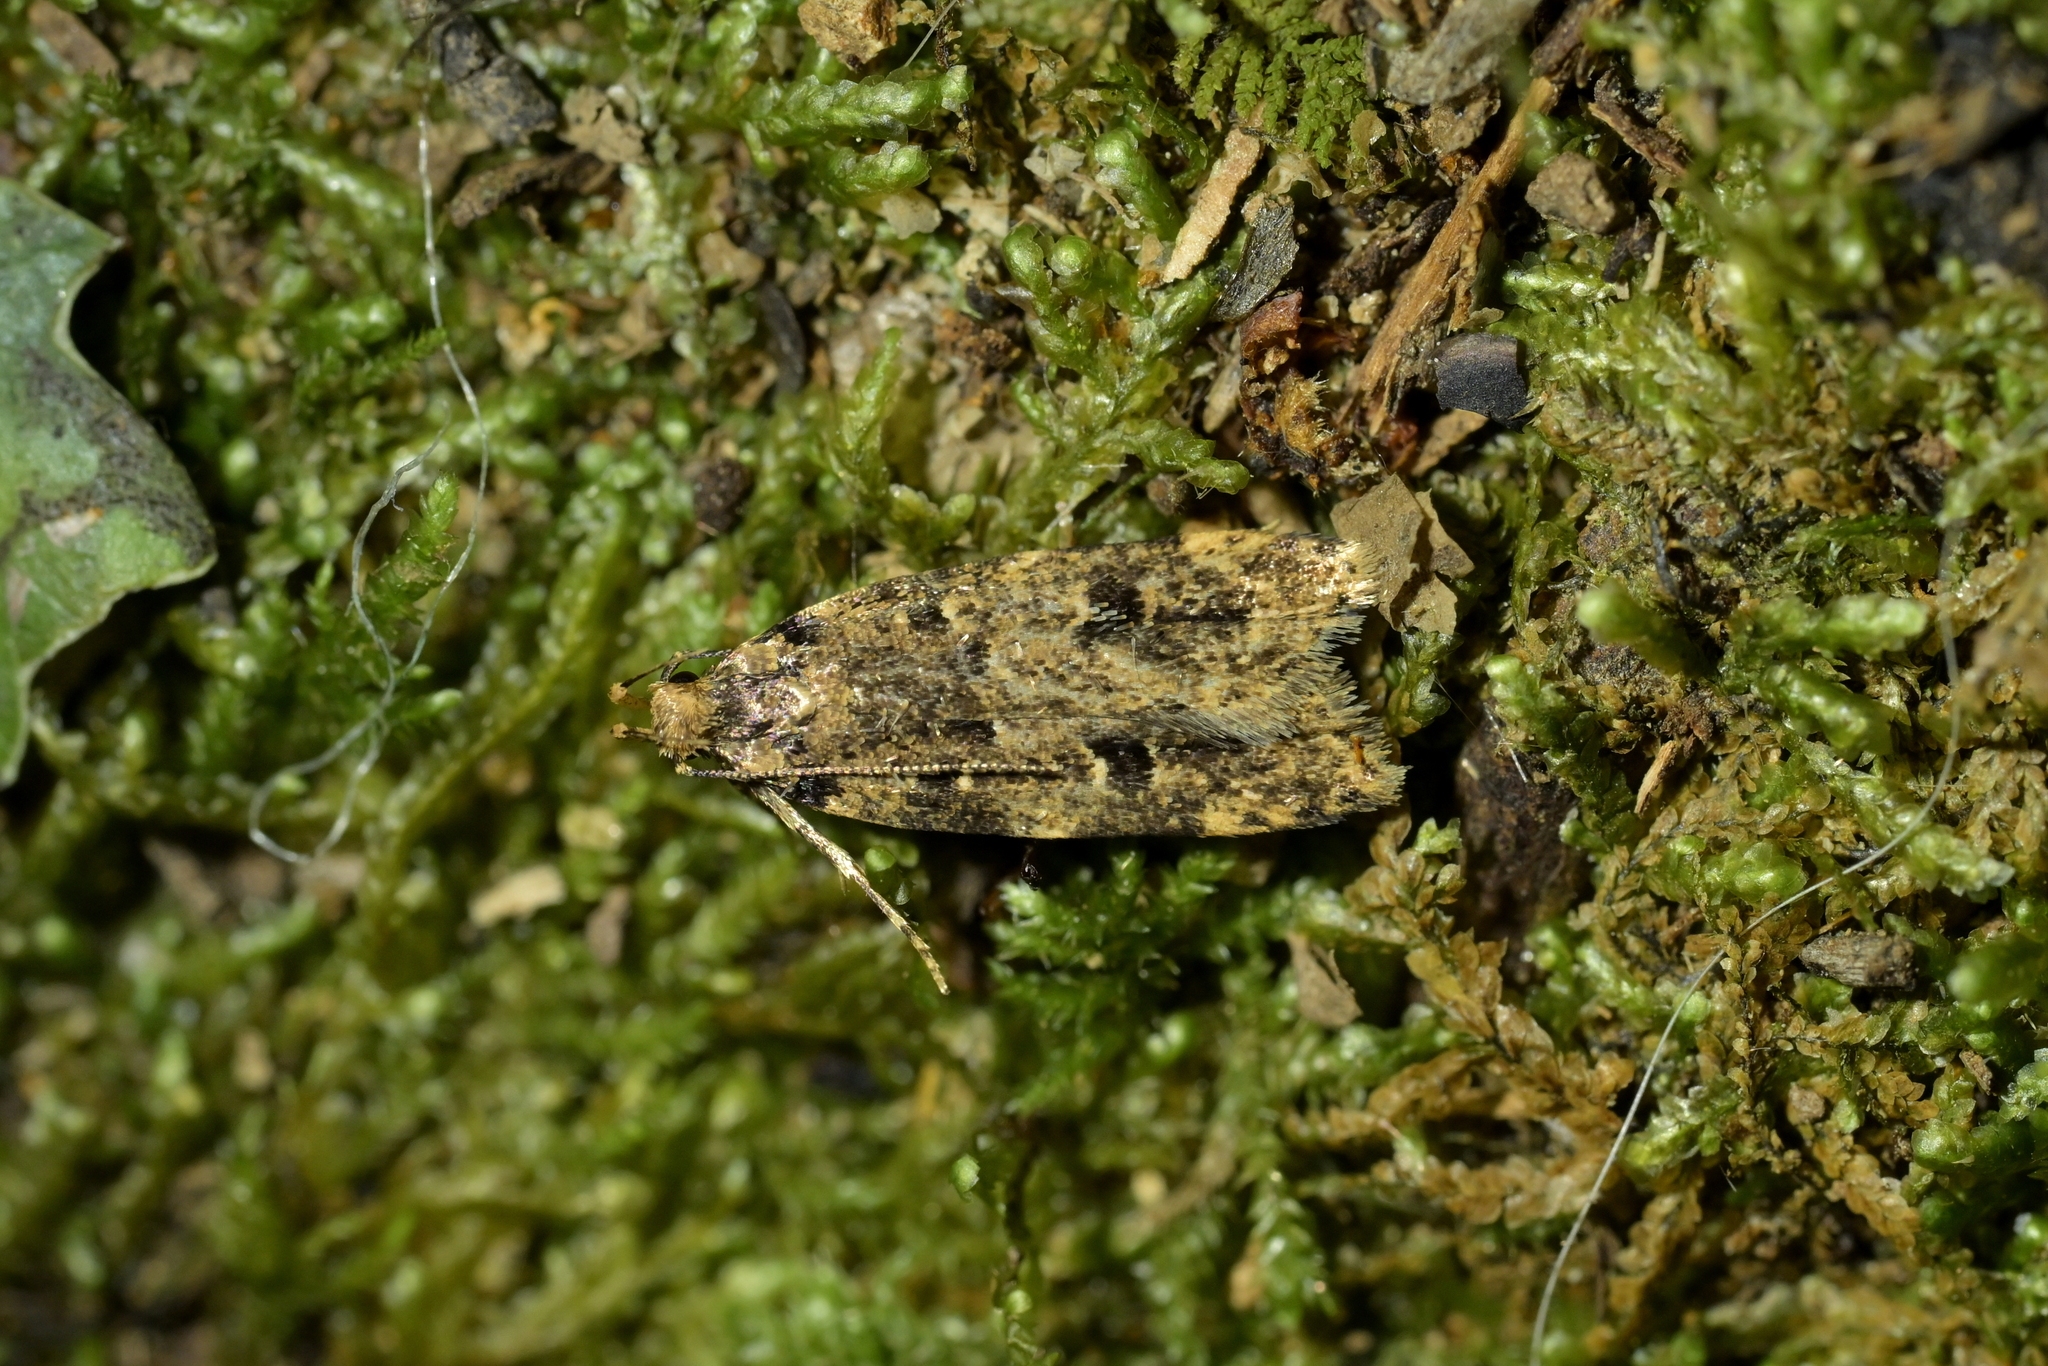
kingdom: Animalia
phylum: Arthropoda
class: Insecta
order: Lepidoptera
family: Oecophoridae
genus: Gymnobathra
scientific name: Gymnobathra dinocosma
